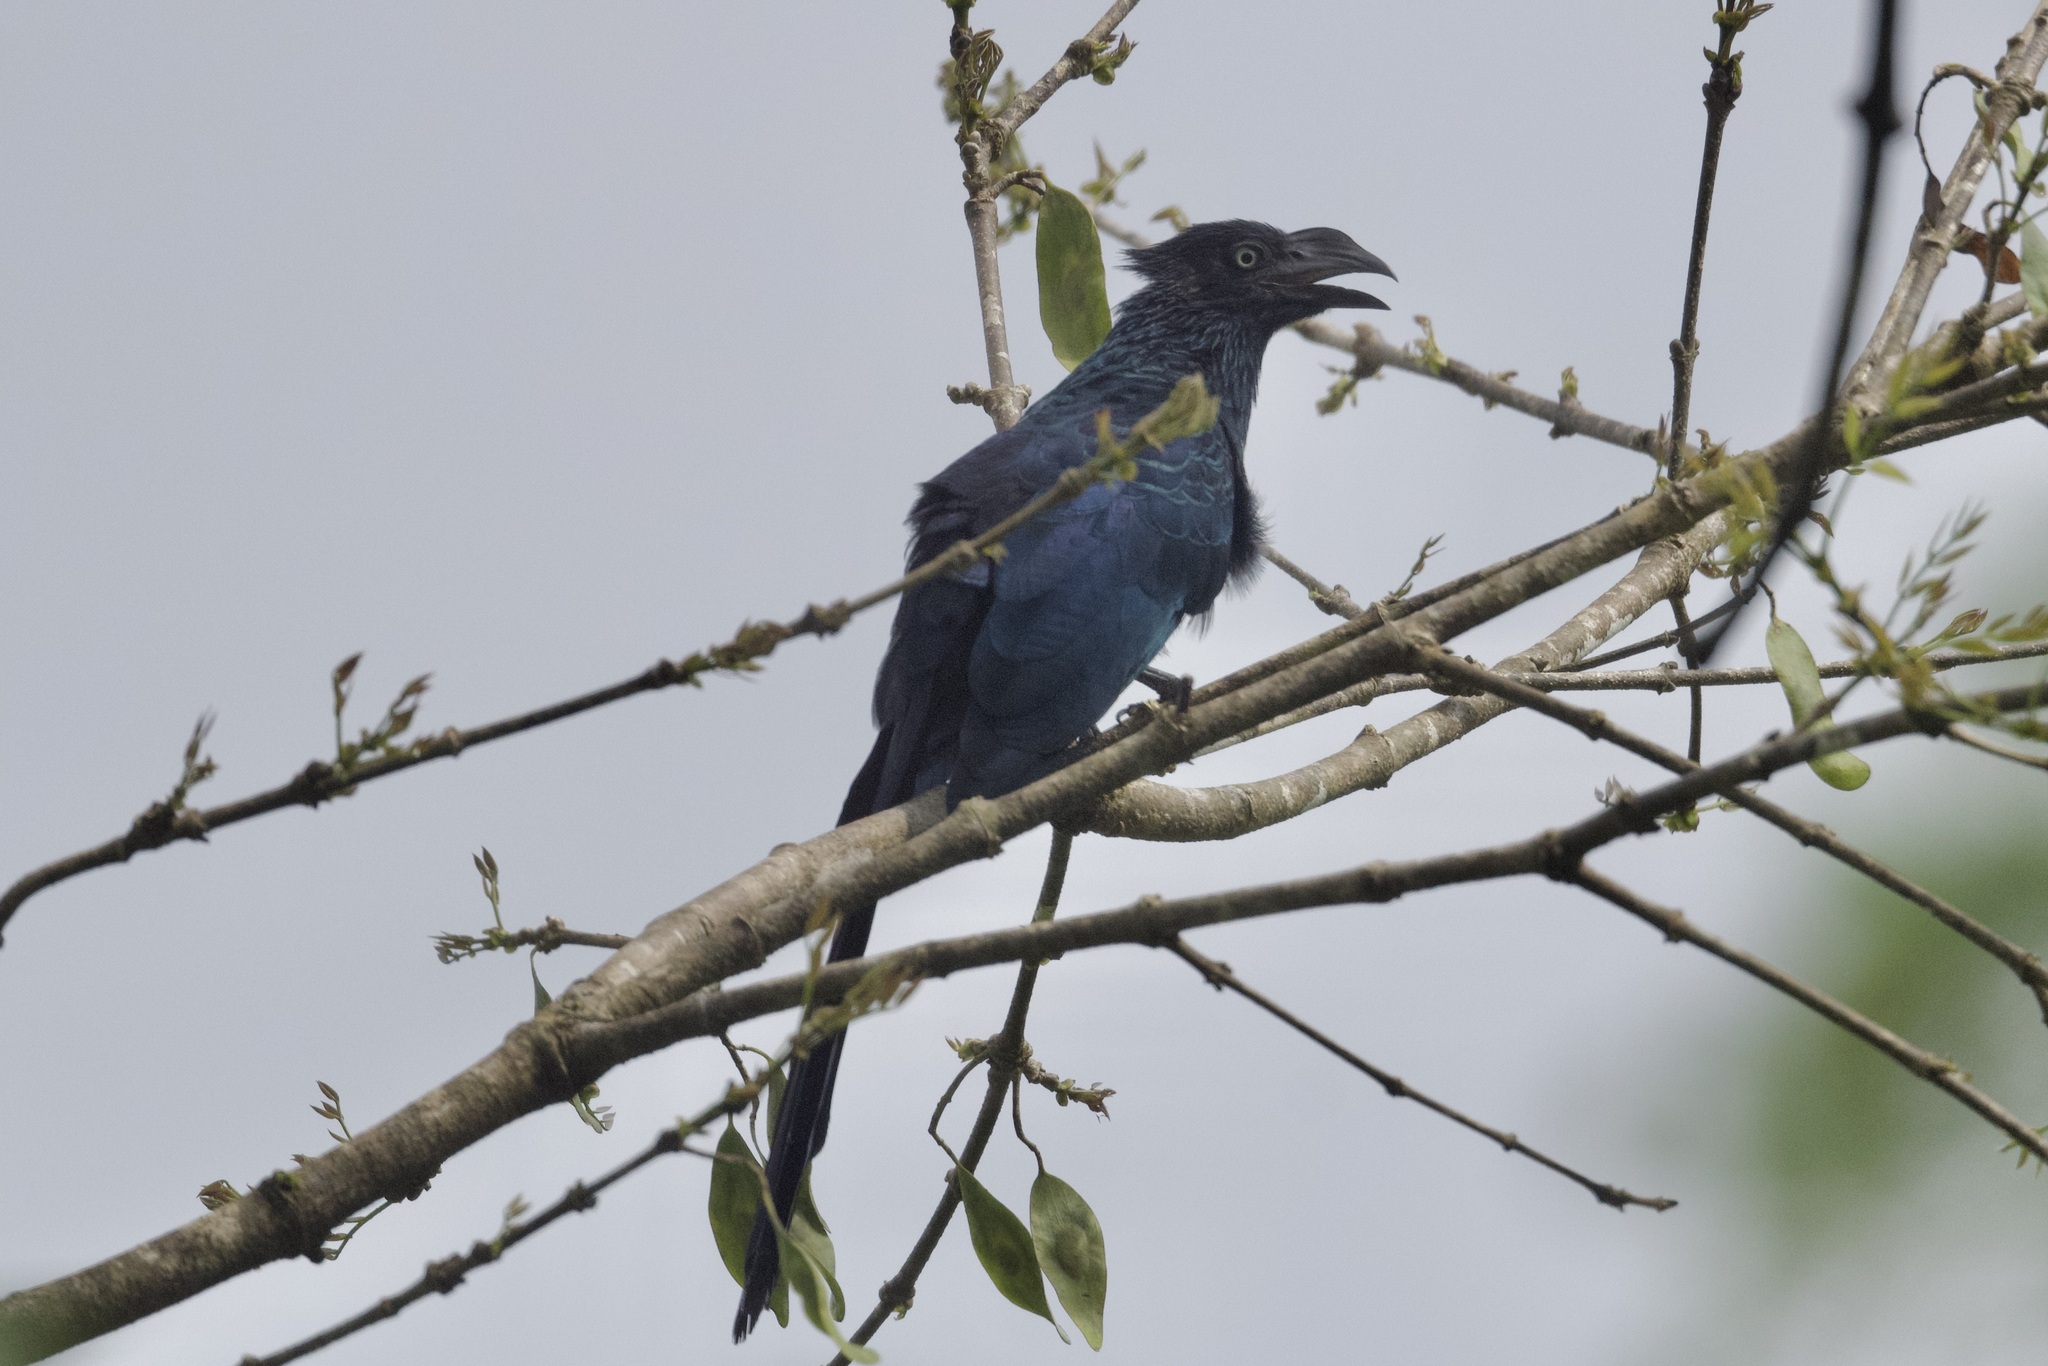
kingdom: Animalia
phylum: Chordata
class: Aves
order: Cuculiformes
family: Cuculidae
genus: Crotophaga
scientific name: Crotophaga major
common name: Greater ani
